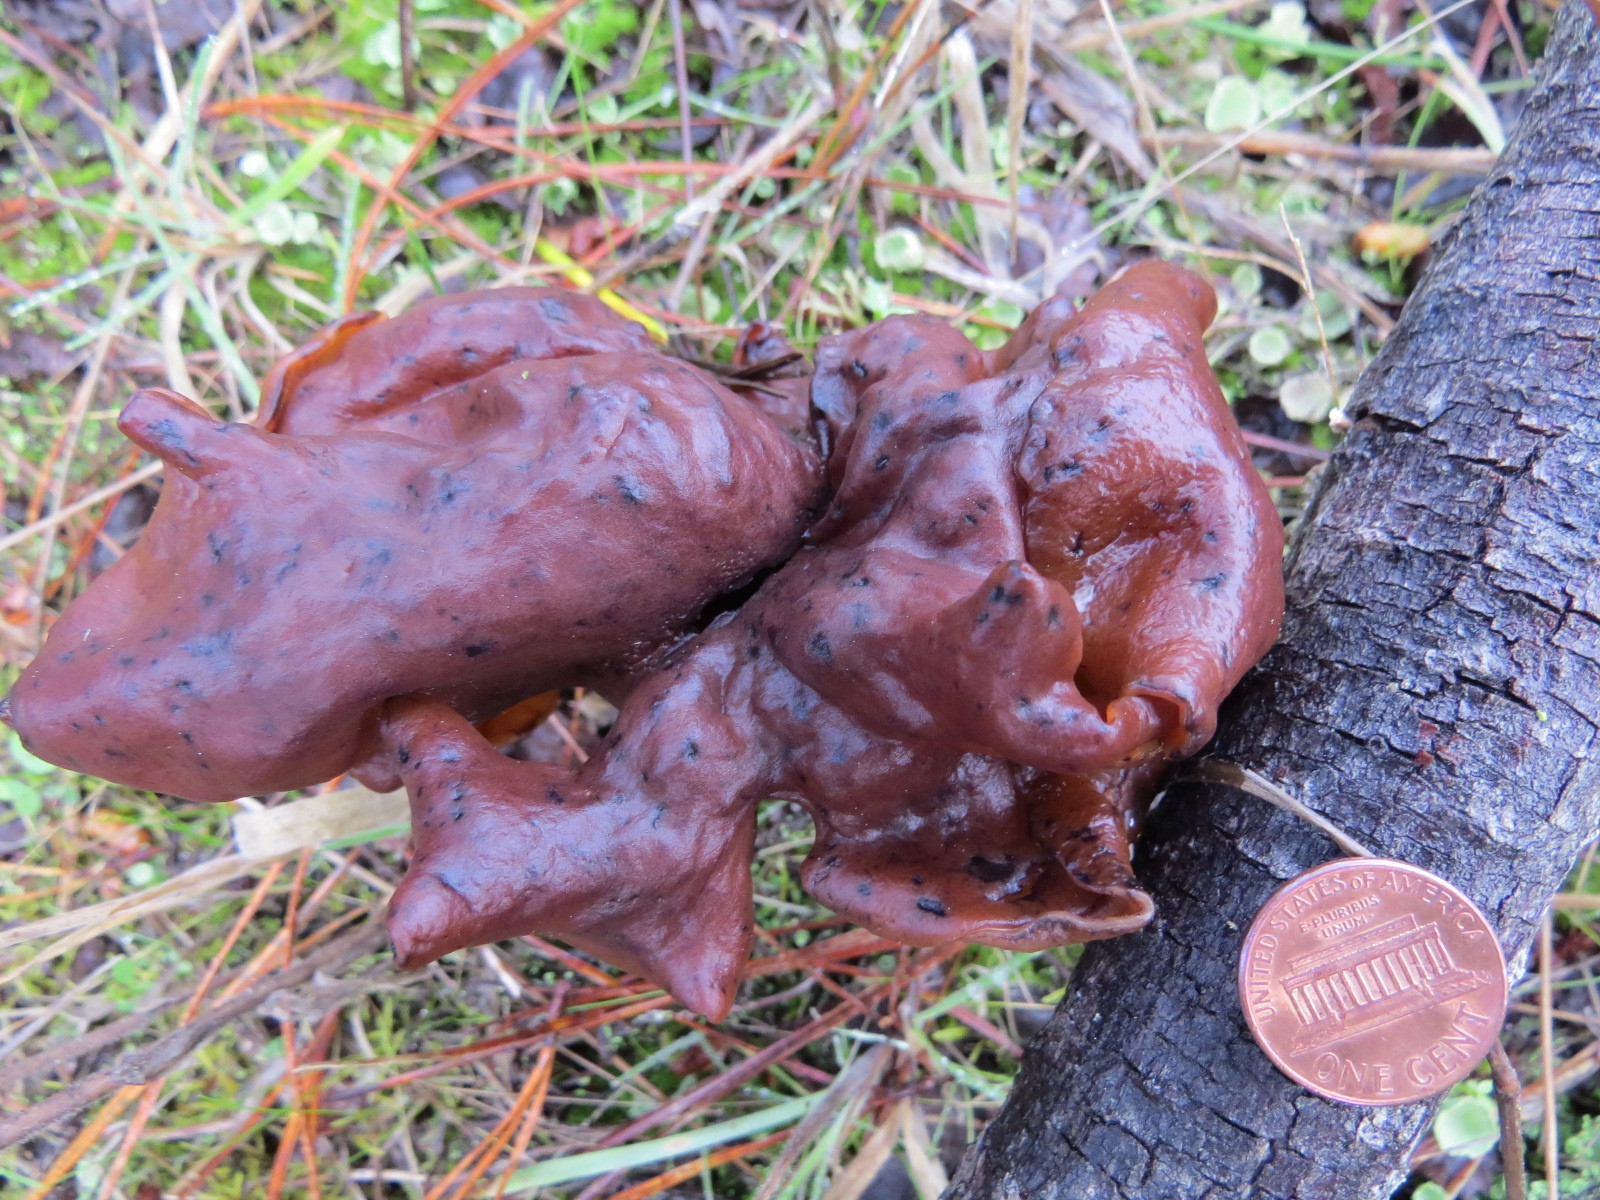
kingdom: Fungi
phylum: Ascomycota
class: Pezizomycetes
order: Pezizales
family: Discinaceae
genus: Gyromitra
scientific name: Gyromitra infula
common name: Pouched false morel
